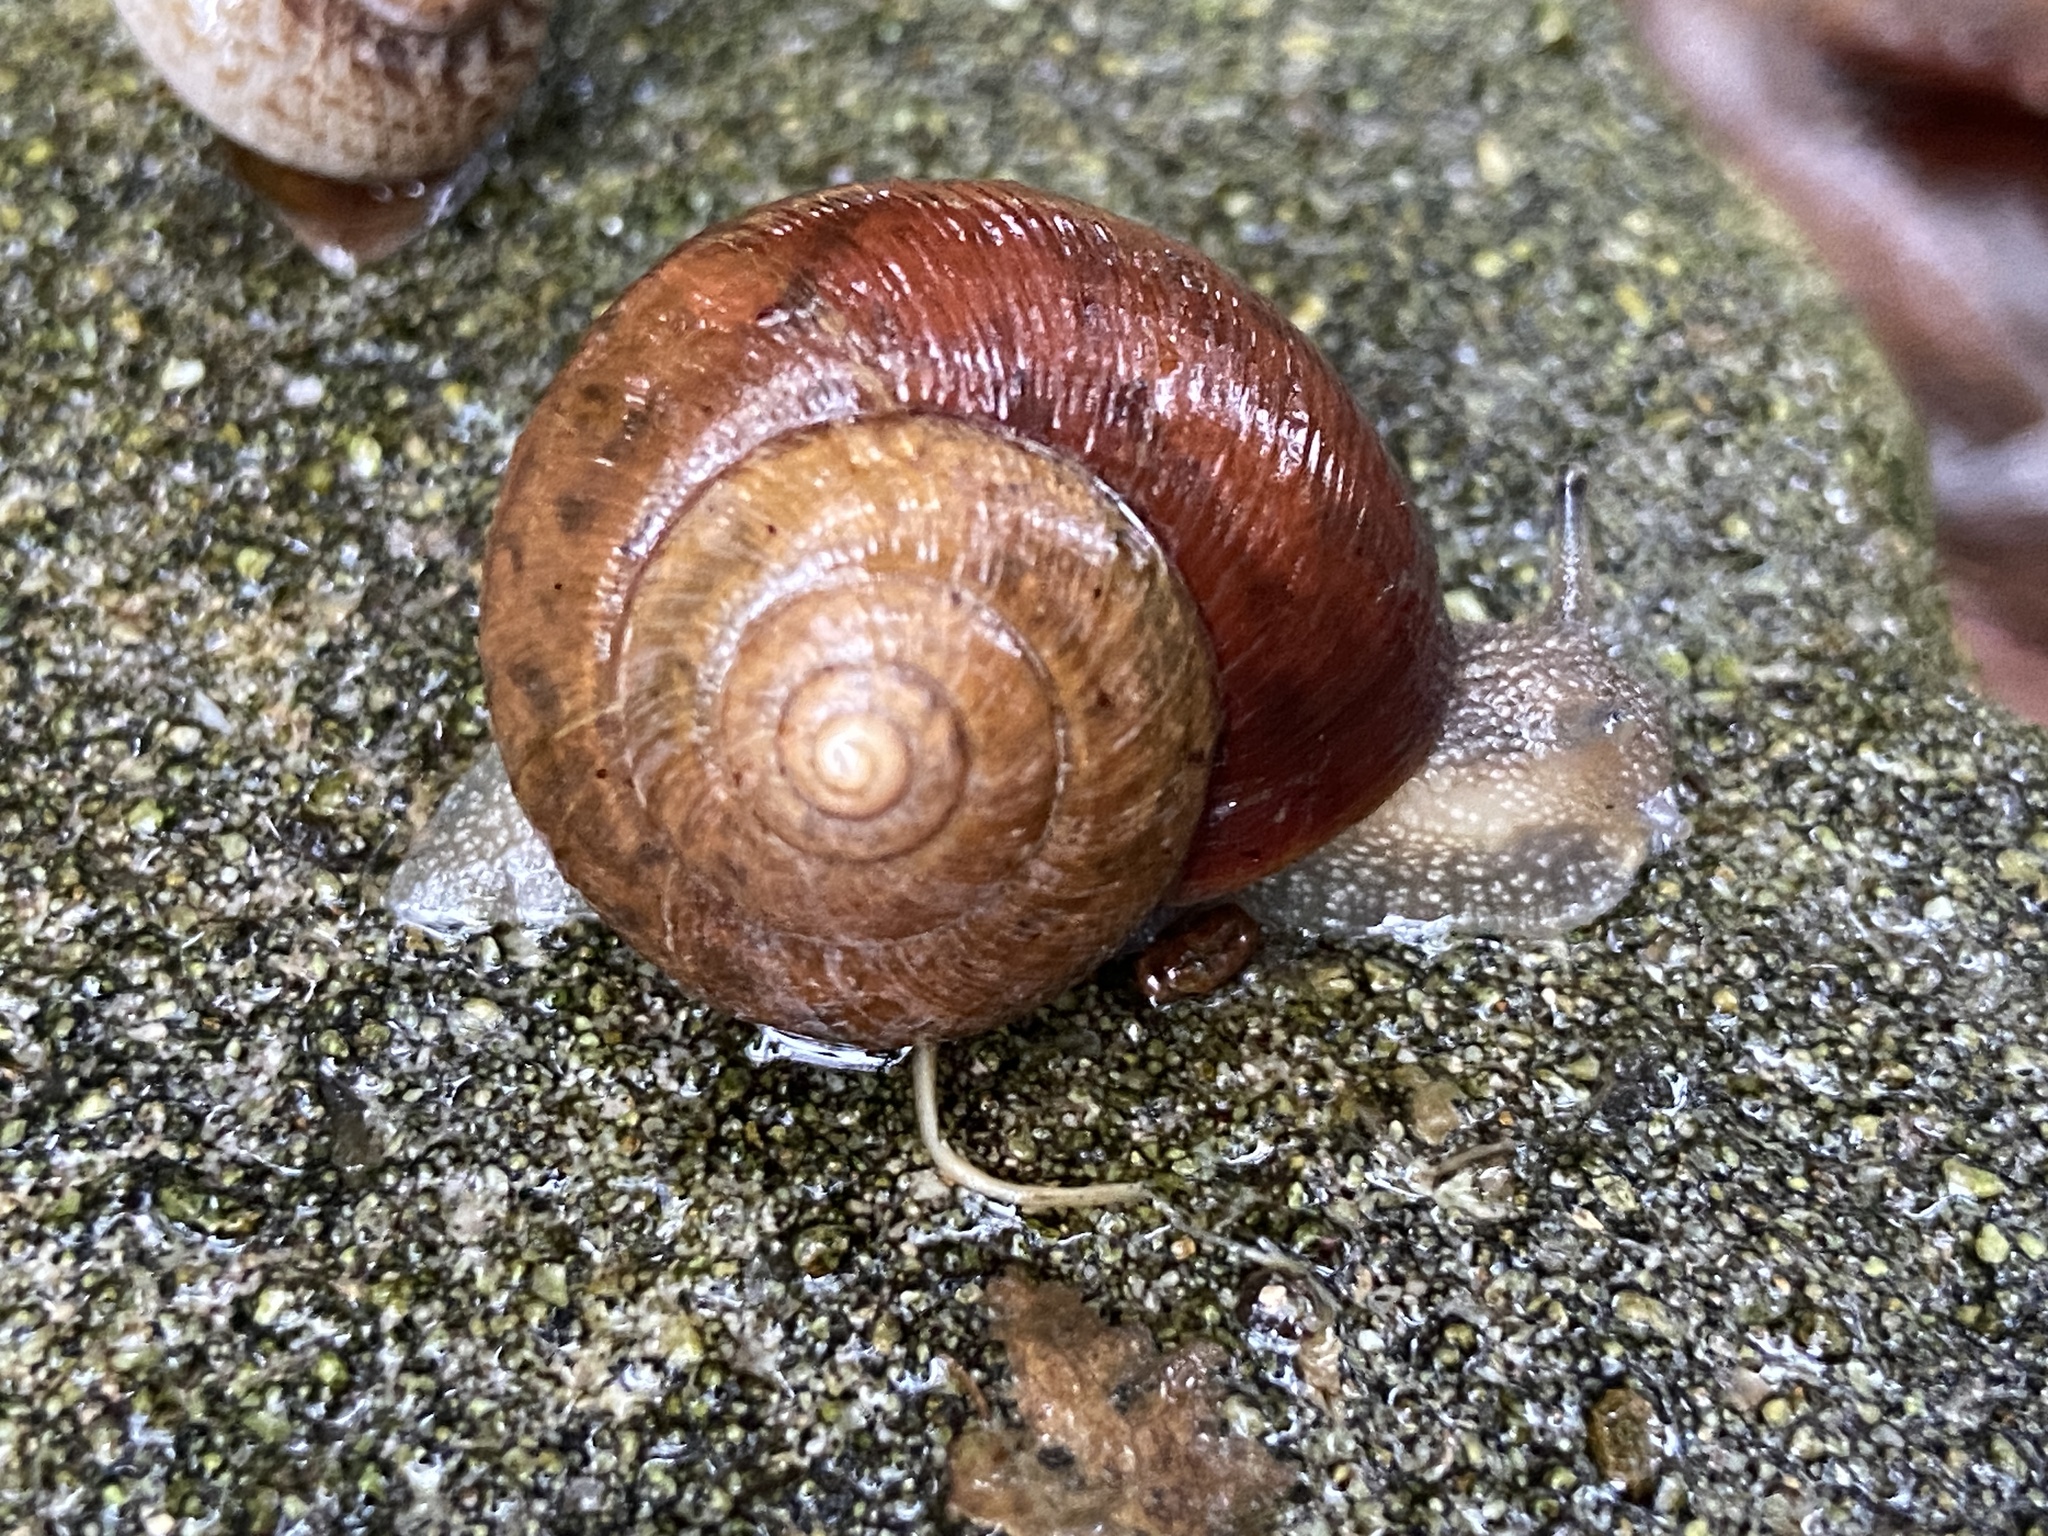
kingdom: Animalia
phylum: Mollusca
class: Gastropoda
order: Stylommatophora
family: Camaenidae
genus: Acusta
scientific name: Acusta despecta
